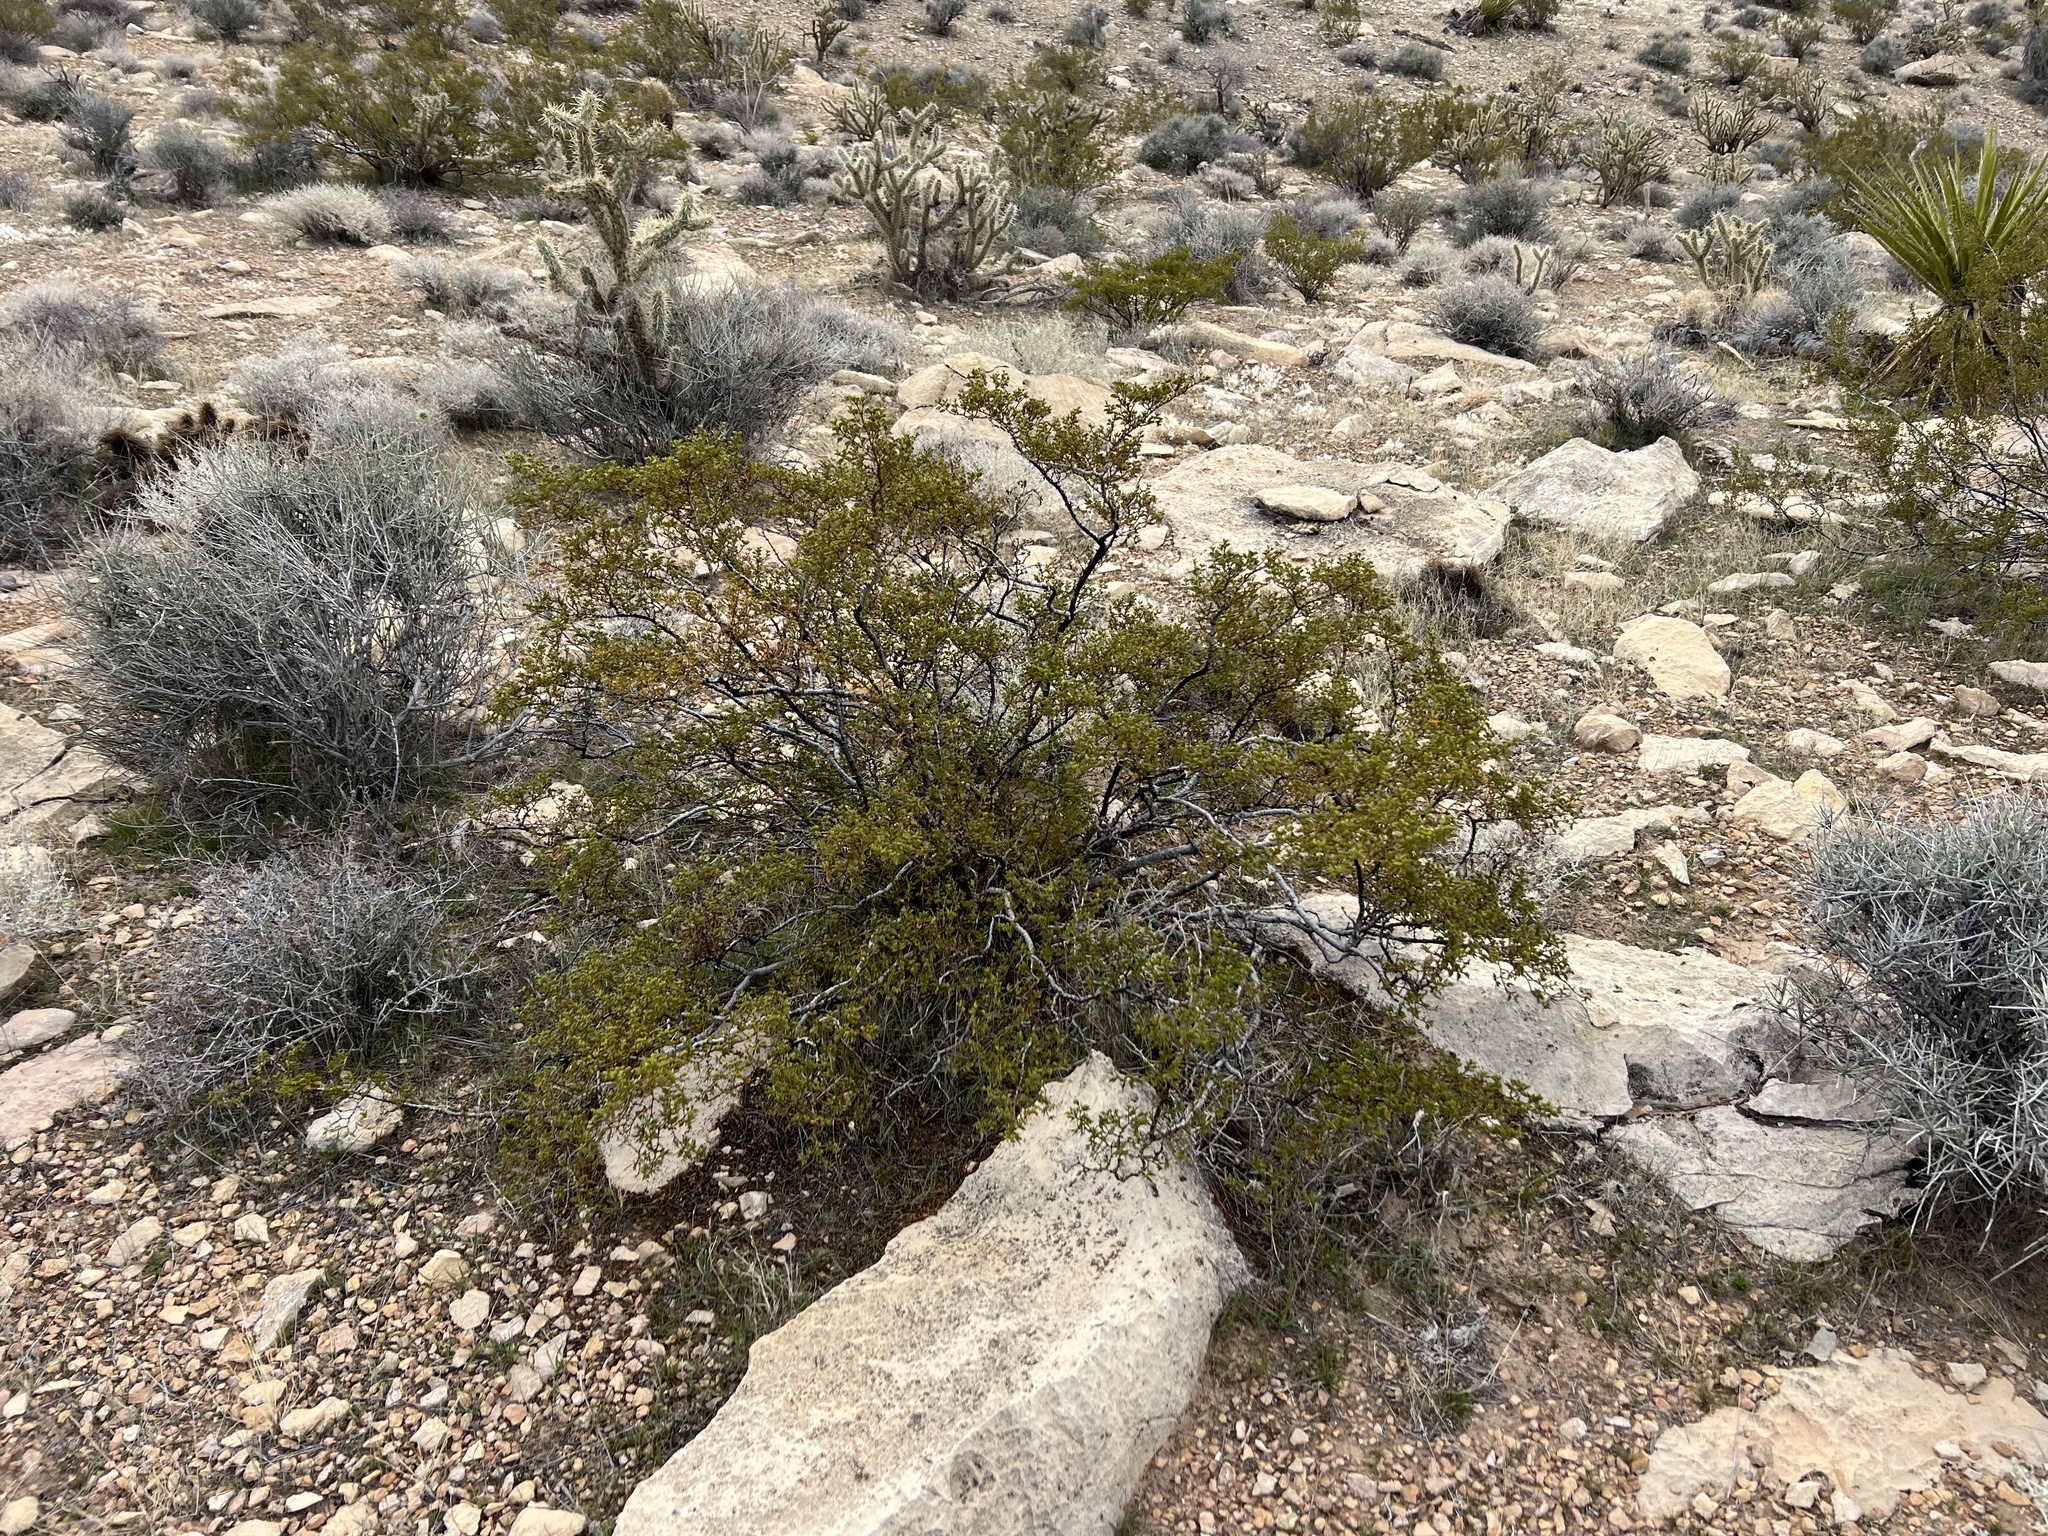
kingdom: Plantae
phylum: Tracheophyta
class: Magnoliopsida
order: Zygophyllales
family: Zygophyllaceae
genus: Larrea
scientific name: Larrea tridentata
